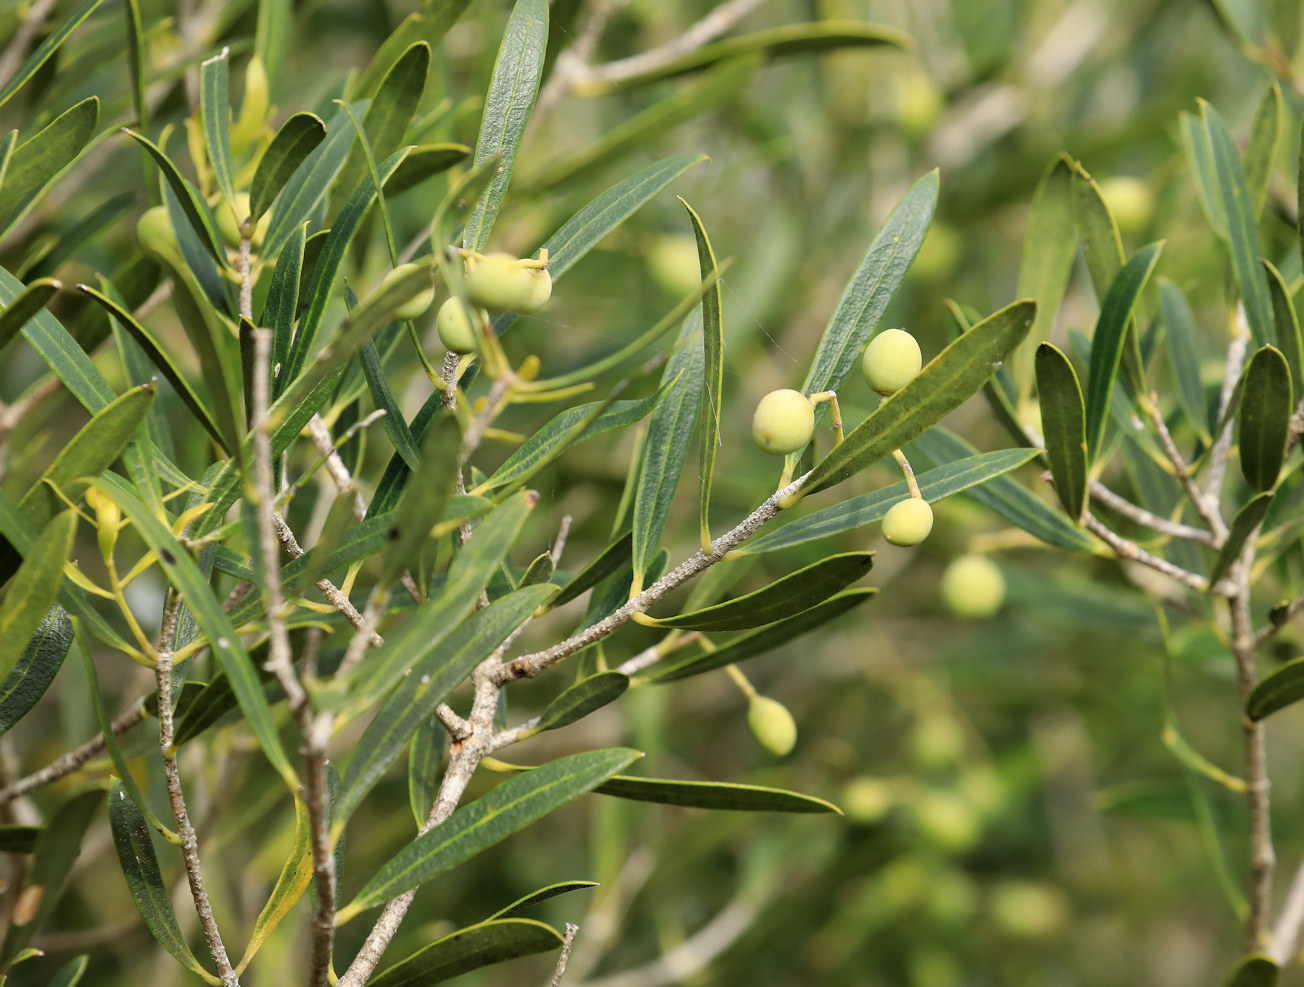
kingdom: Plantae
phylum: Tracheophyta
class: Magnoliopsida
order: Lamiales
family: Oleaceae
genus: Olea
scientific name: Olea exasperata
